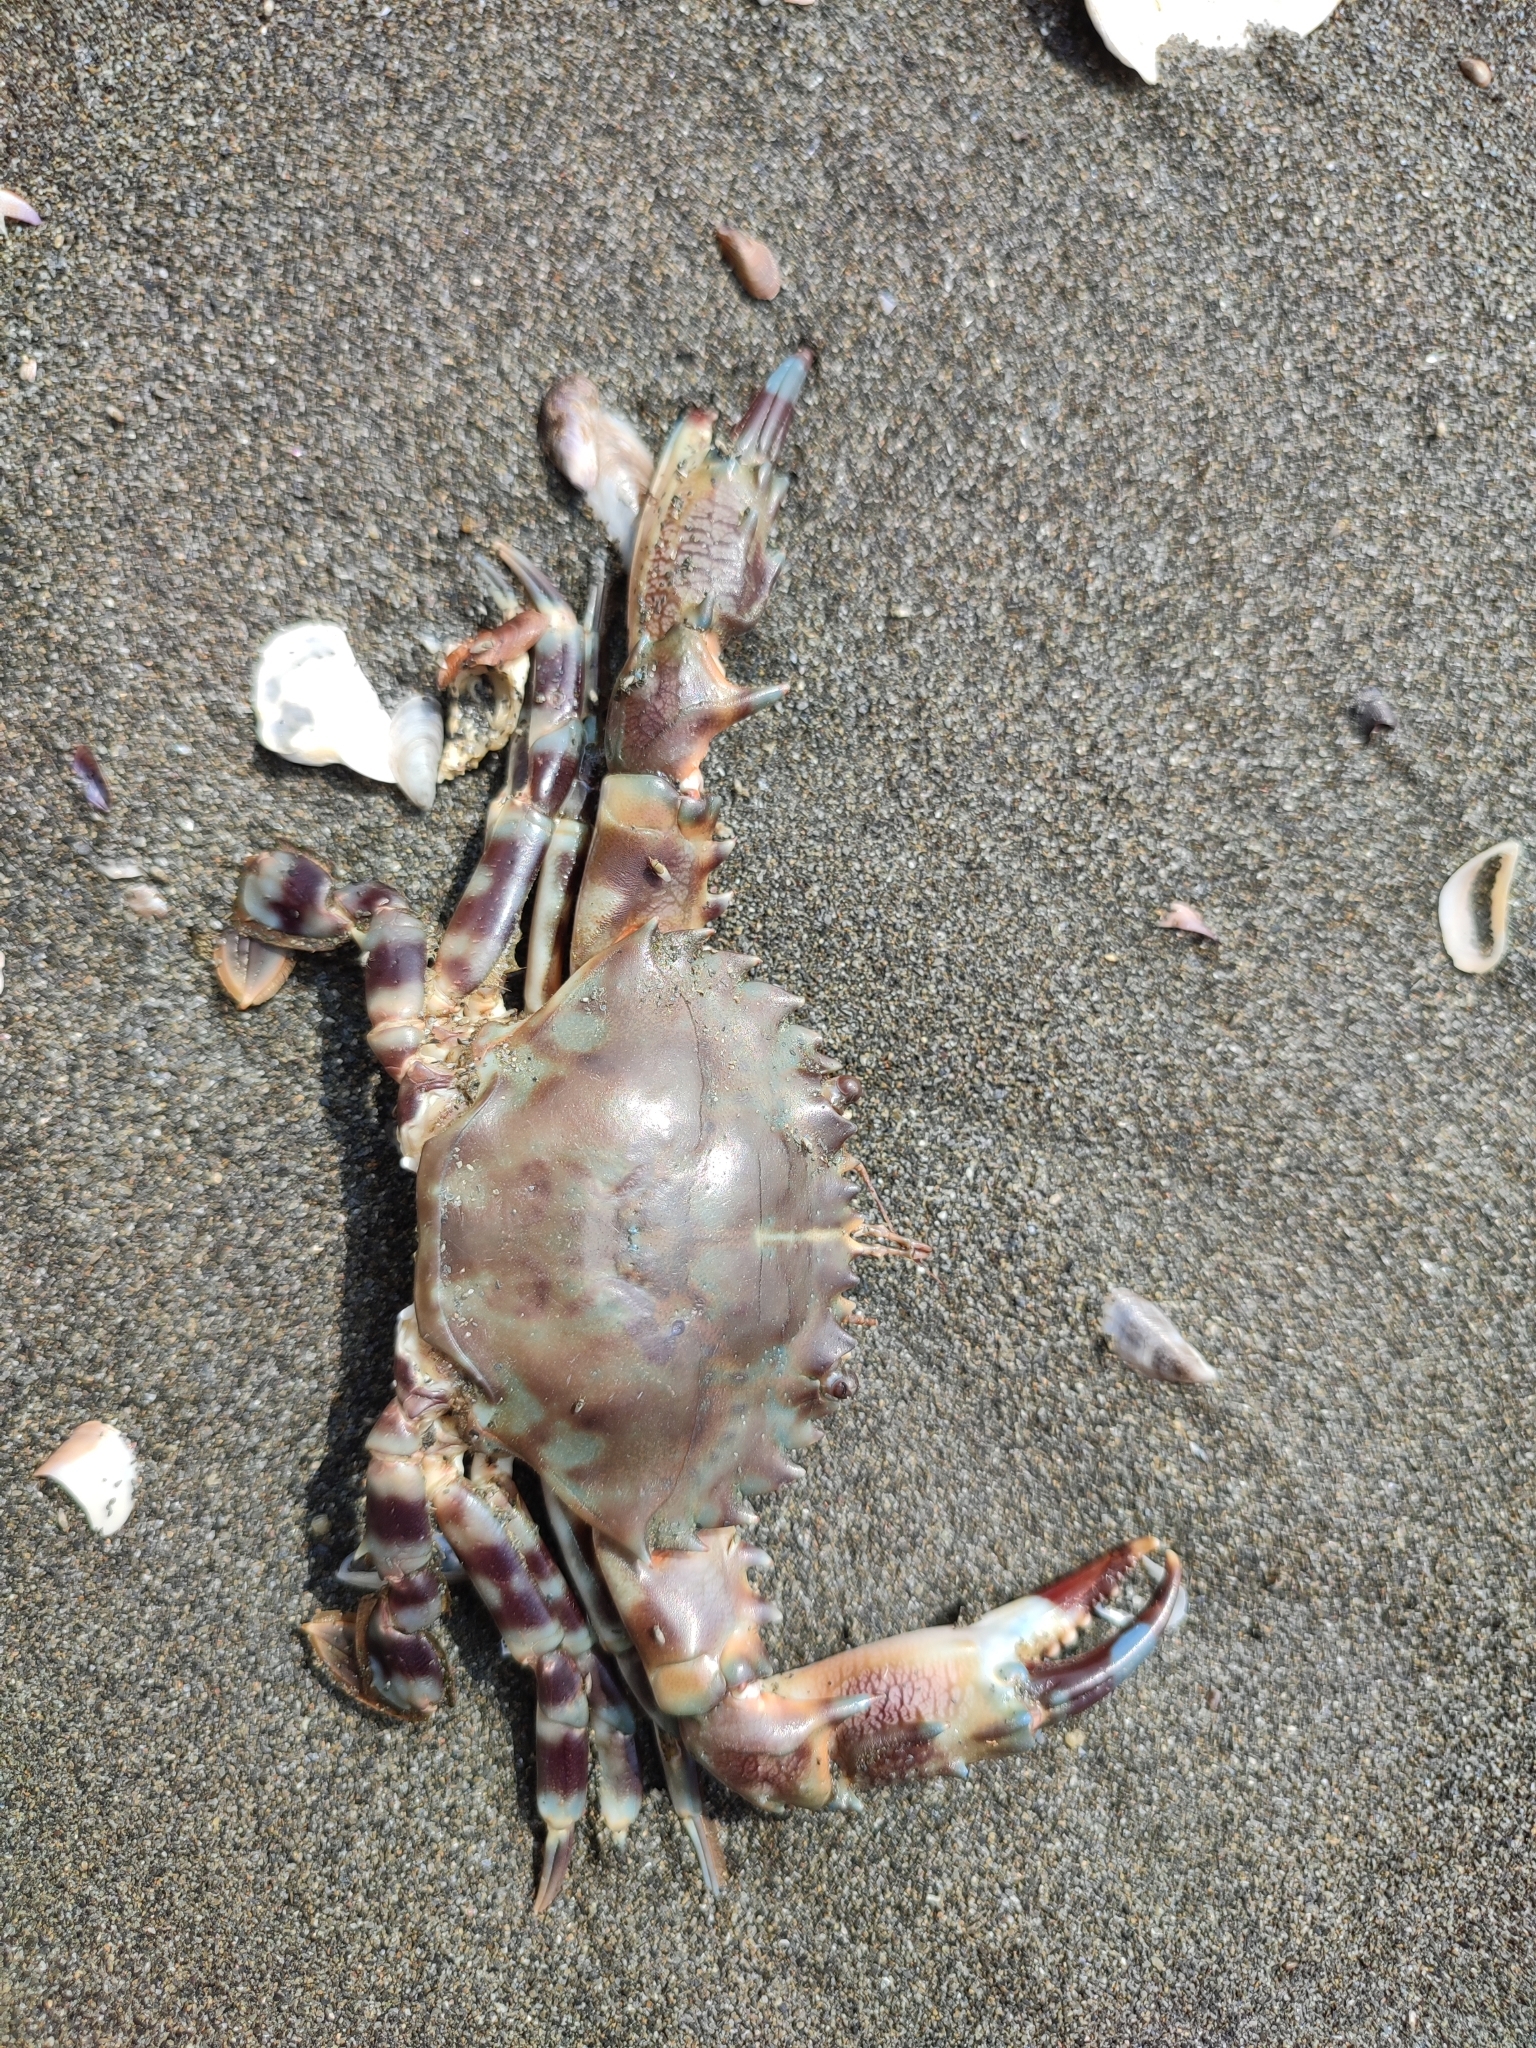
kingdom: Animalia
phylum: Arthropoda
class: Malacostraca
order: Decapoda
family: Portunidae
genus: Charybdis
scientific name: Charybdis annulata
